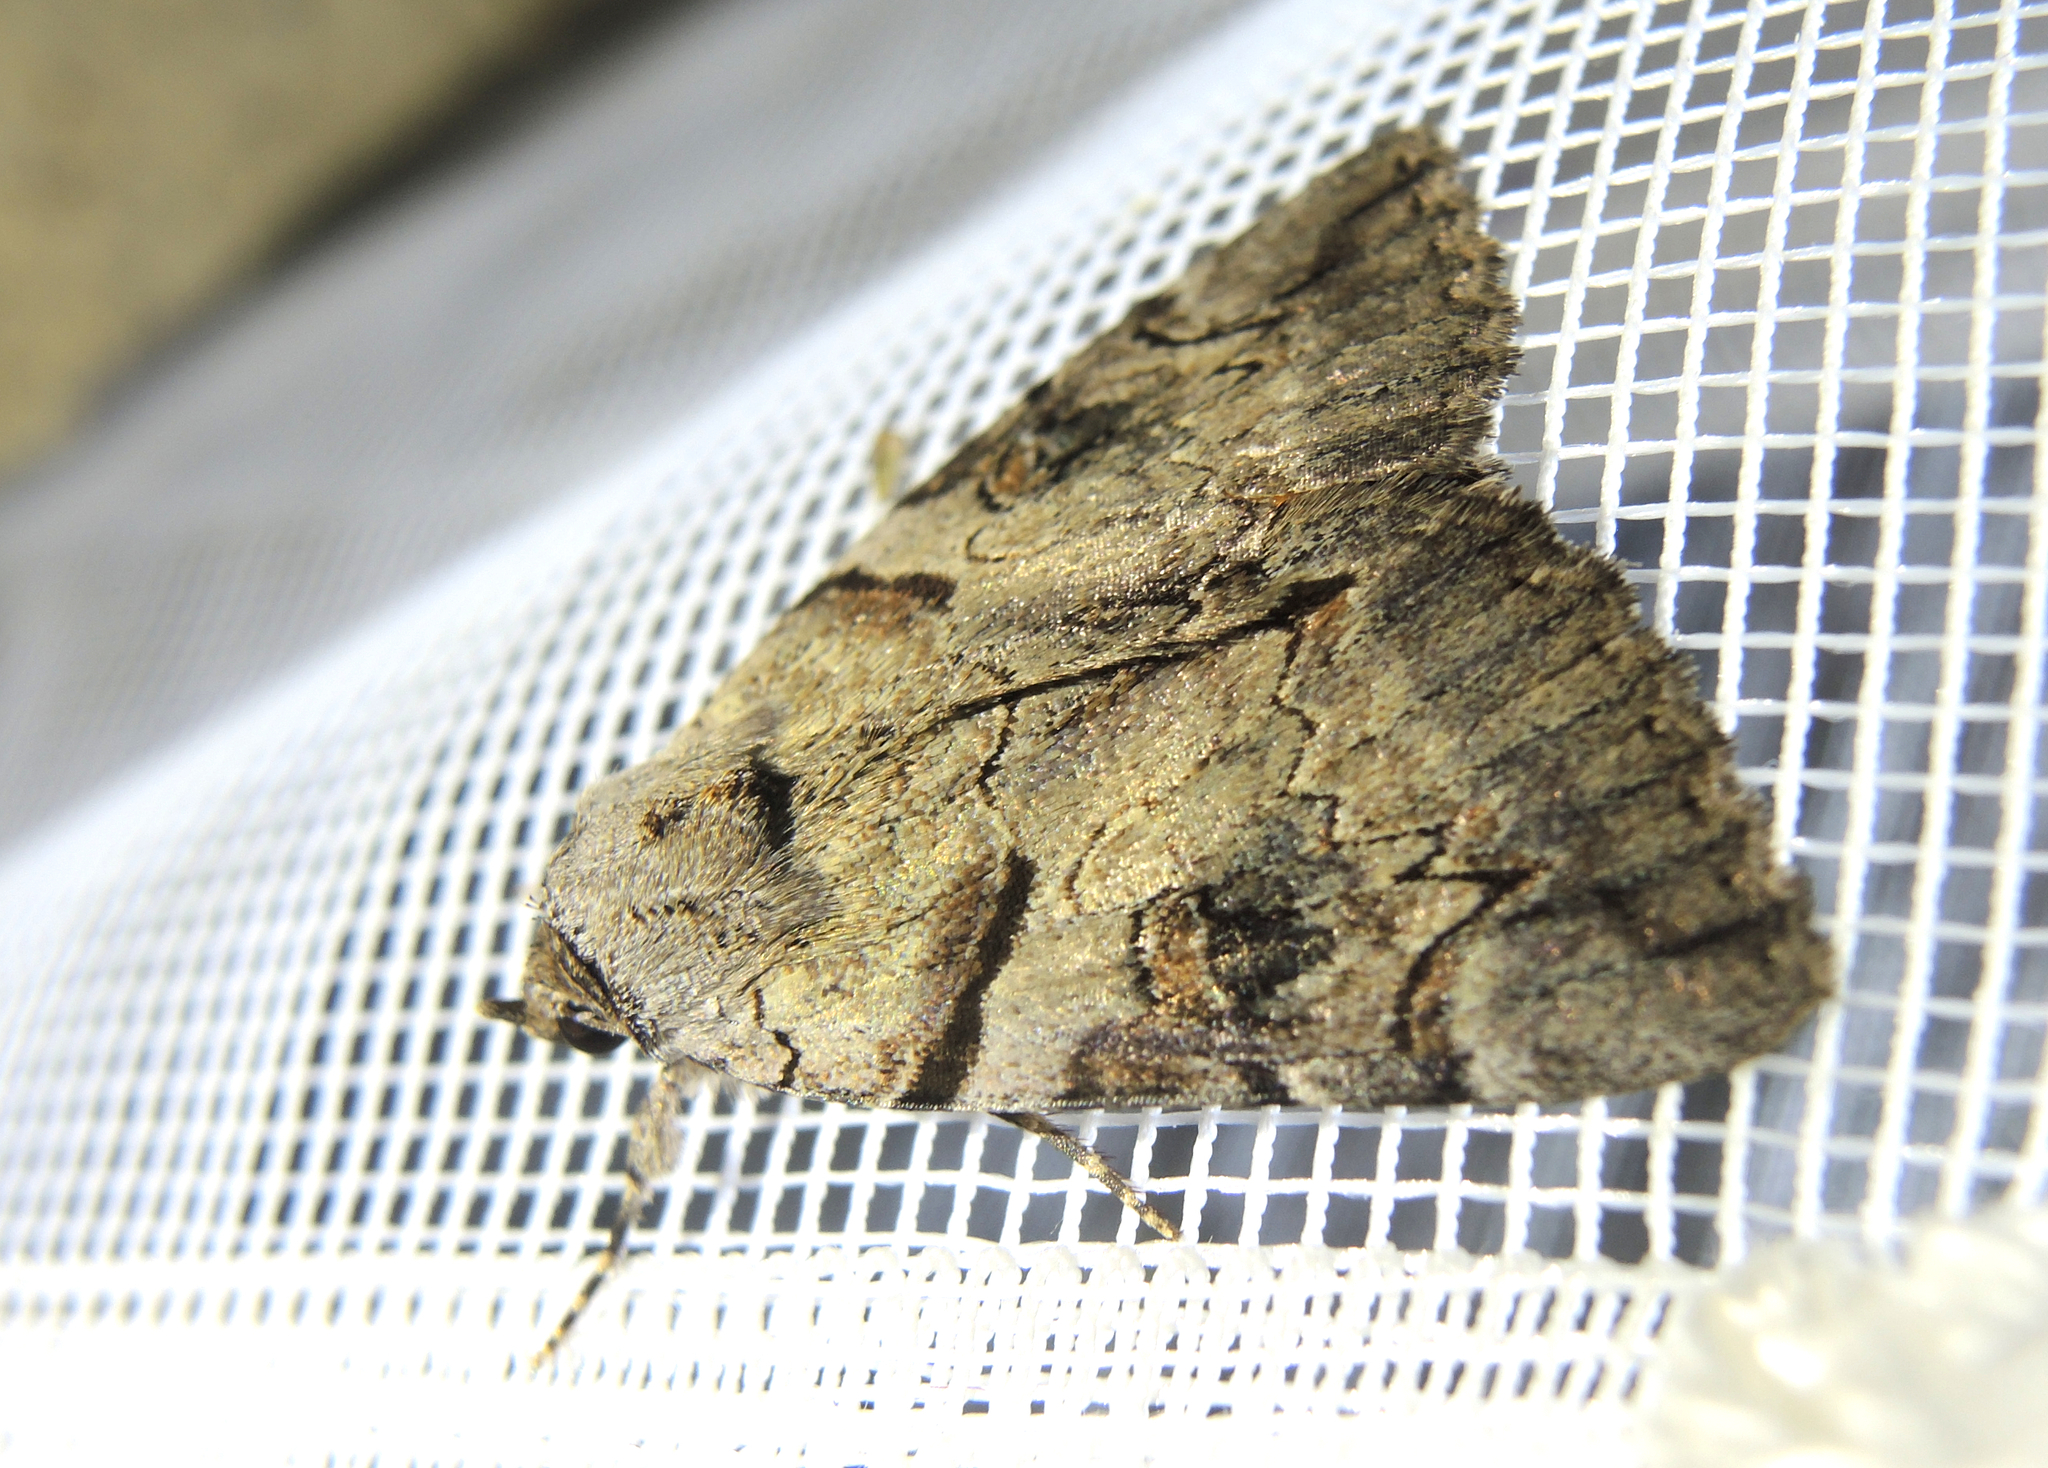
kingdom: Animalia
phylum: Chordata
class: Amphibia
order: Anura
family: Hylidae
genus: Hyla
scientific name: Hyla orientalis
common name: Caucasian treefrog
